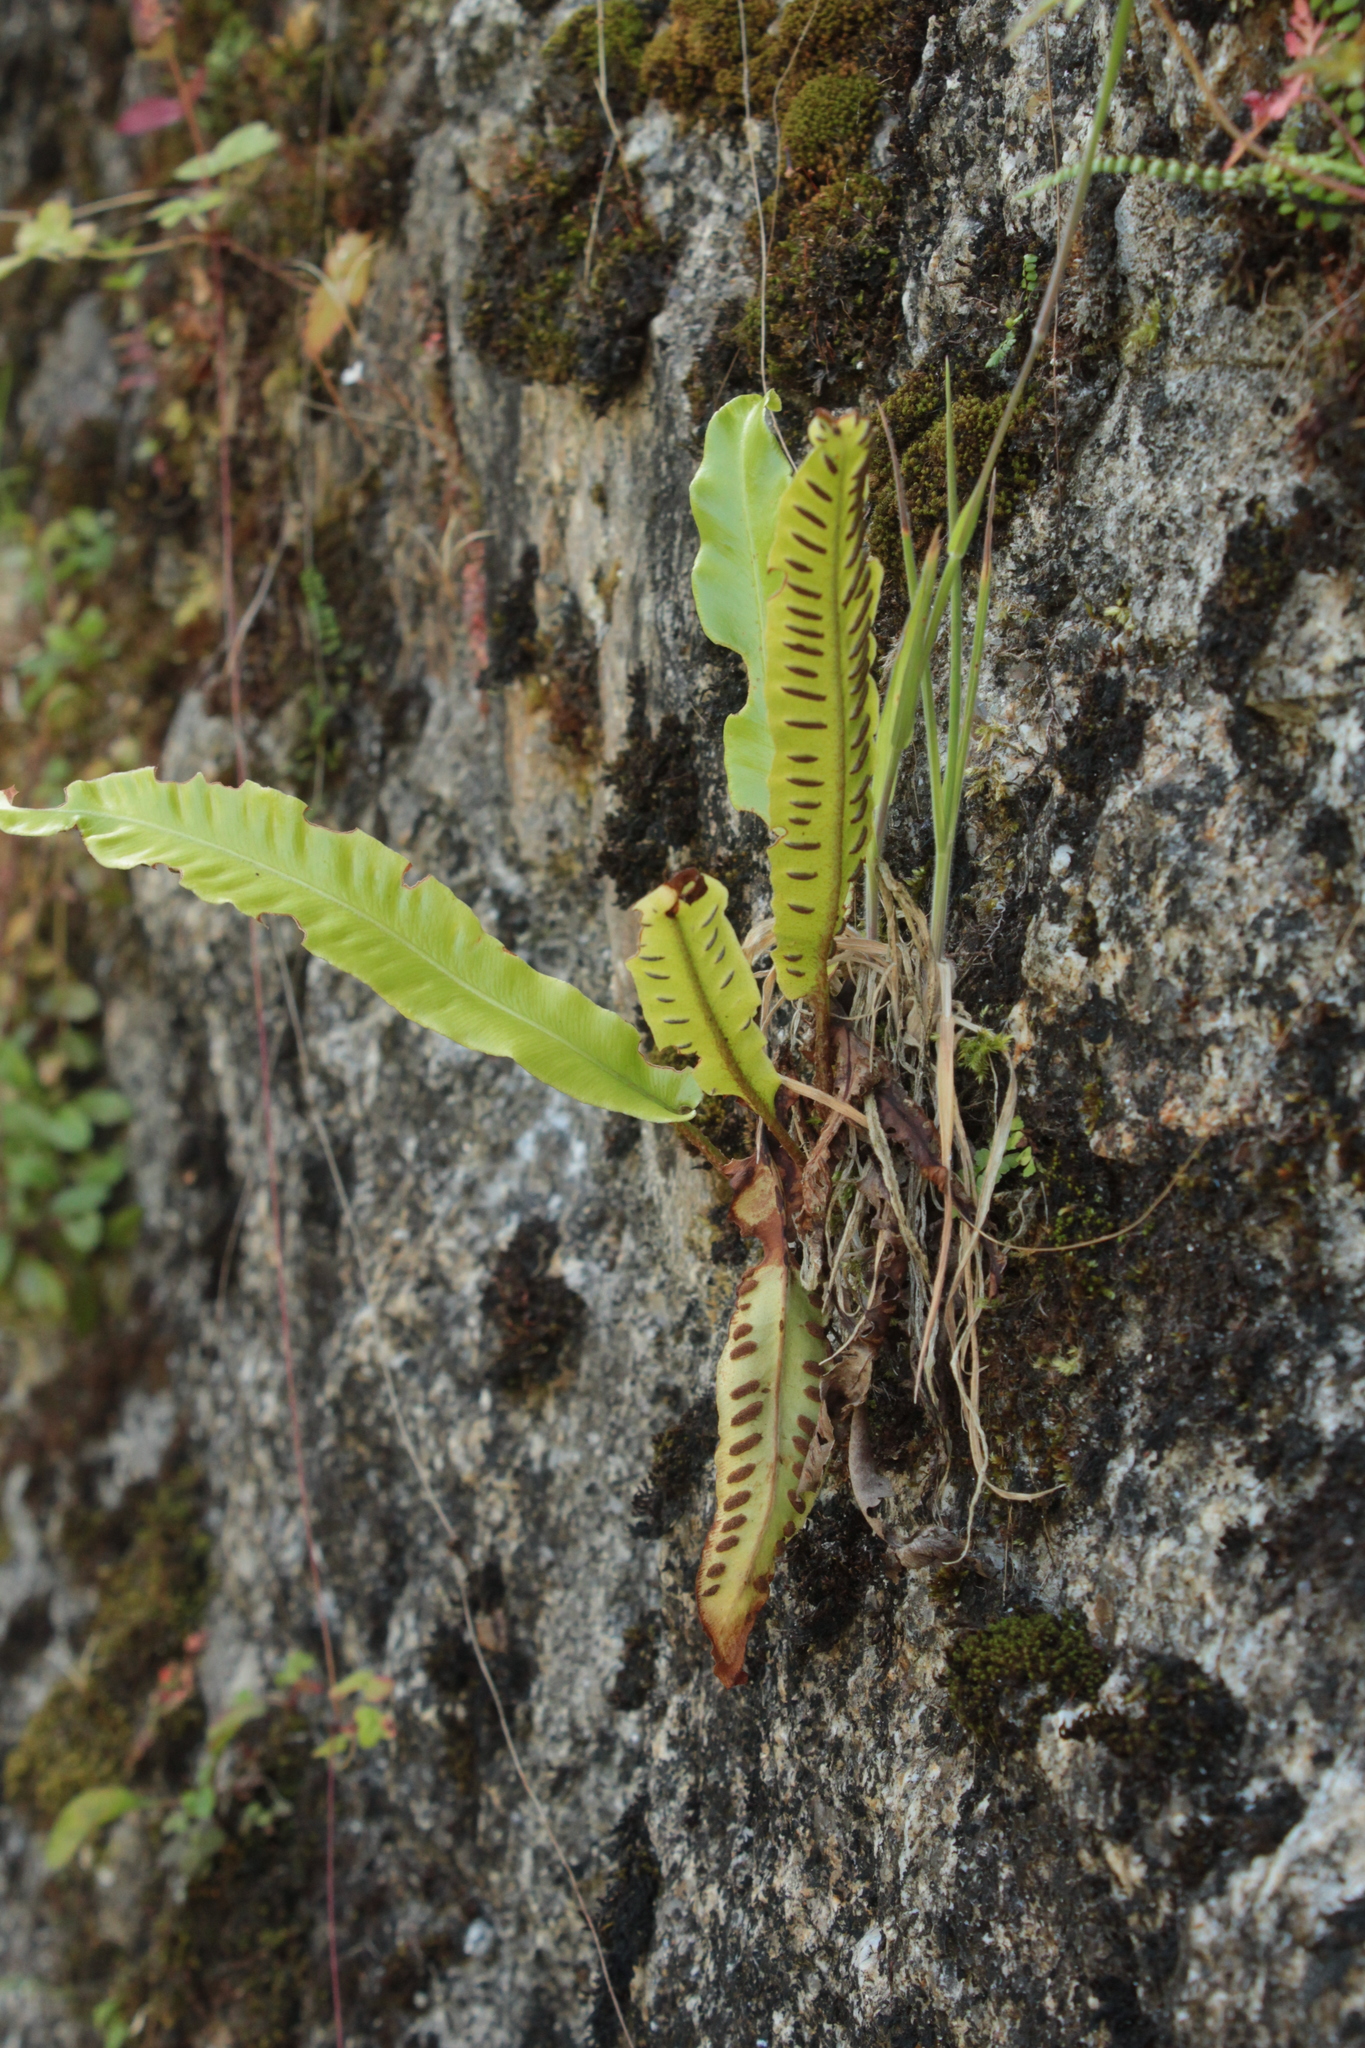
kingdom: Plantae
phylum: Tracheophyta
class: Polypodiopsida
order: Polypodiales
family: Aspleniaceae
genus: Asplenium
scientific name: Asplenium scolopendrium
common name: Hart's-tongue fern
